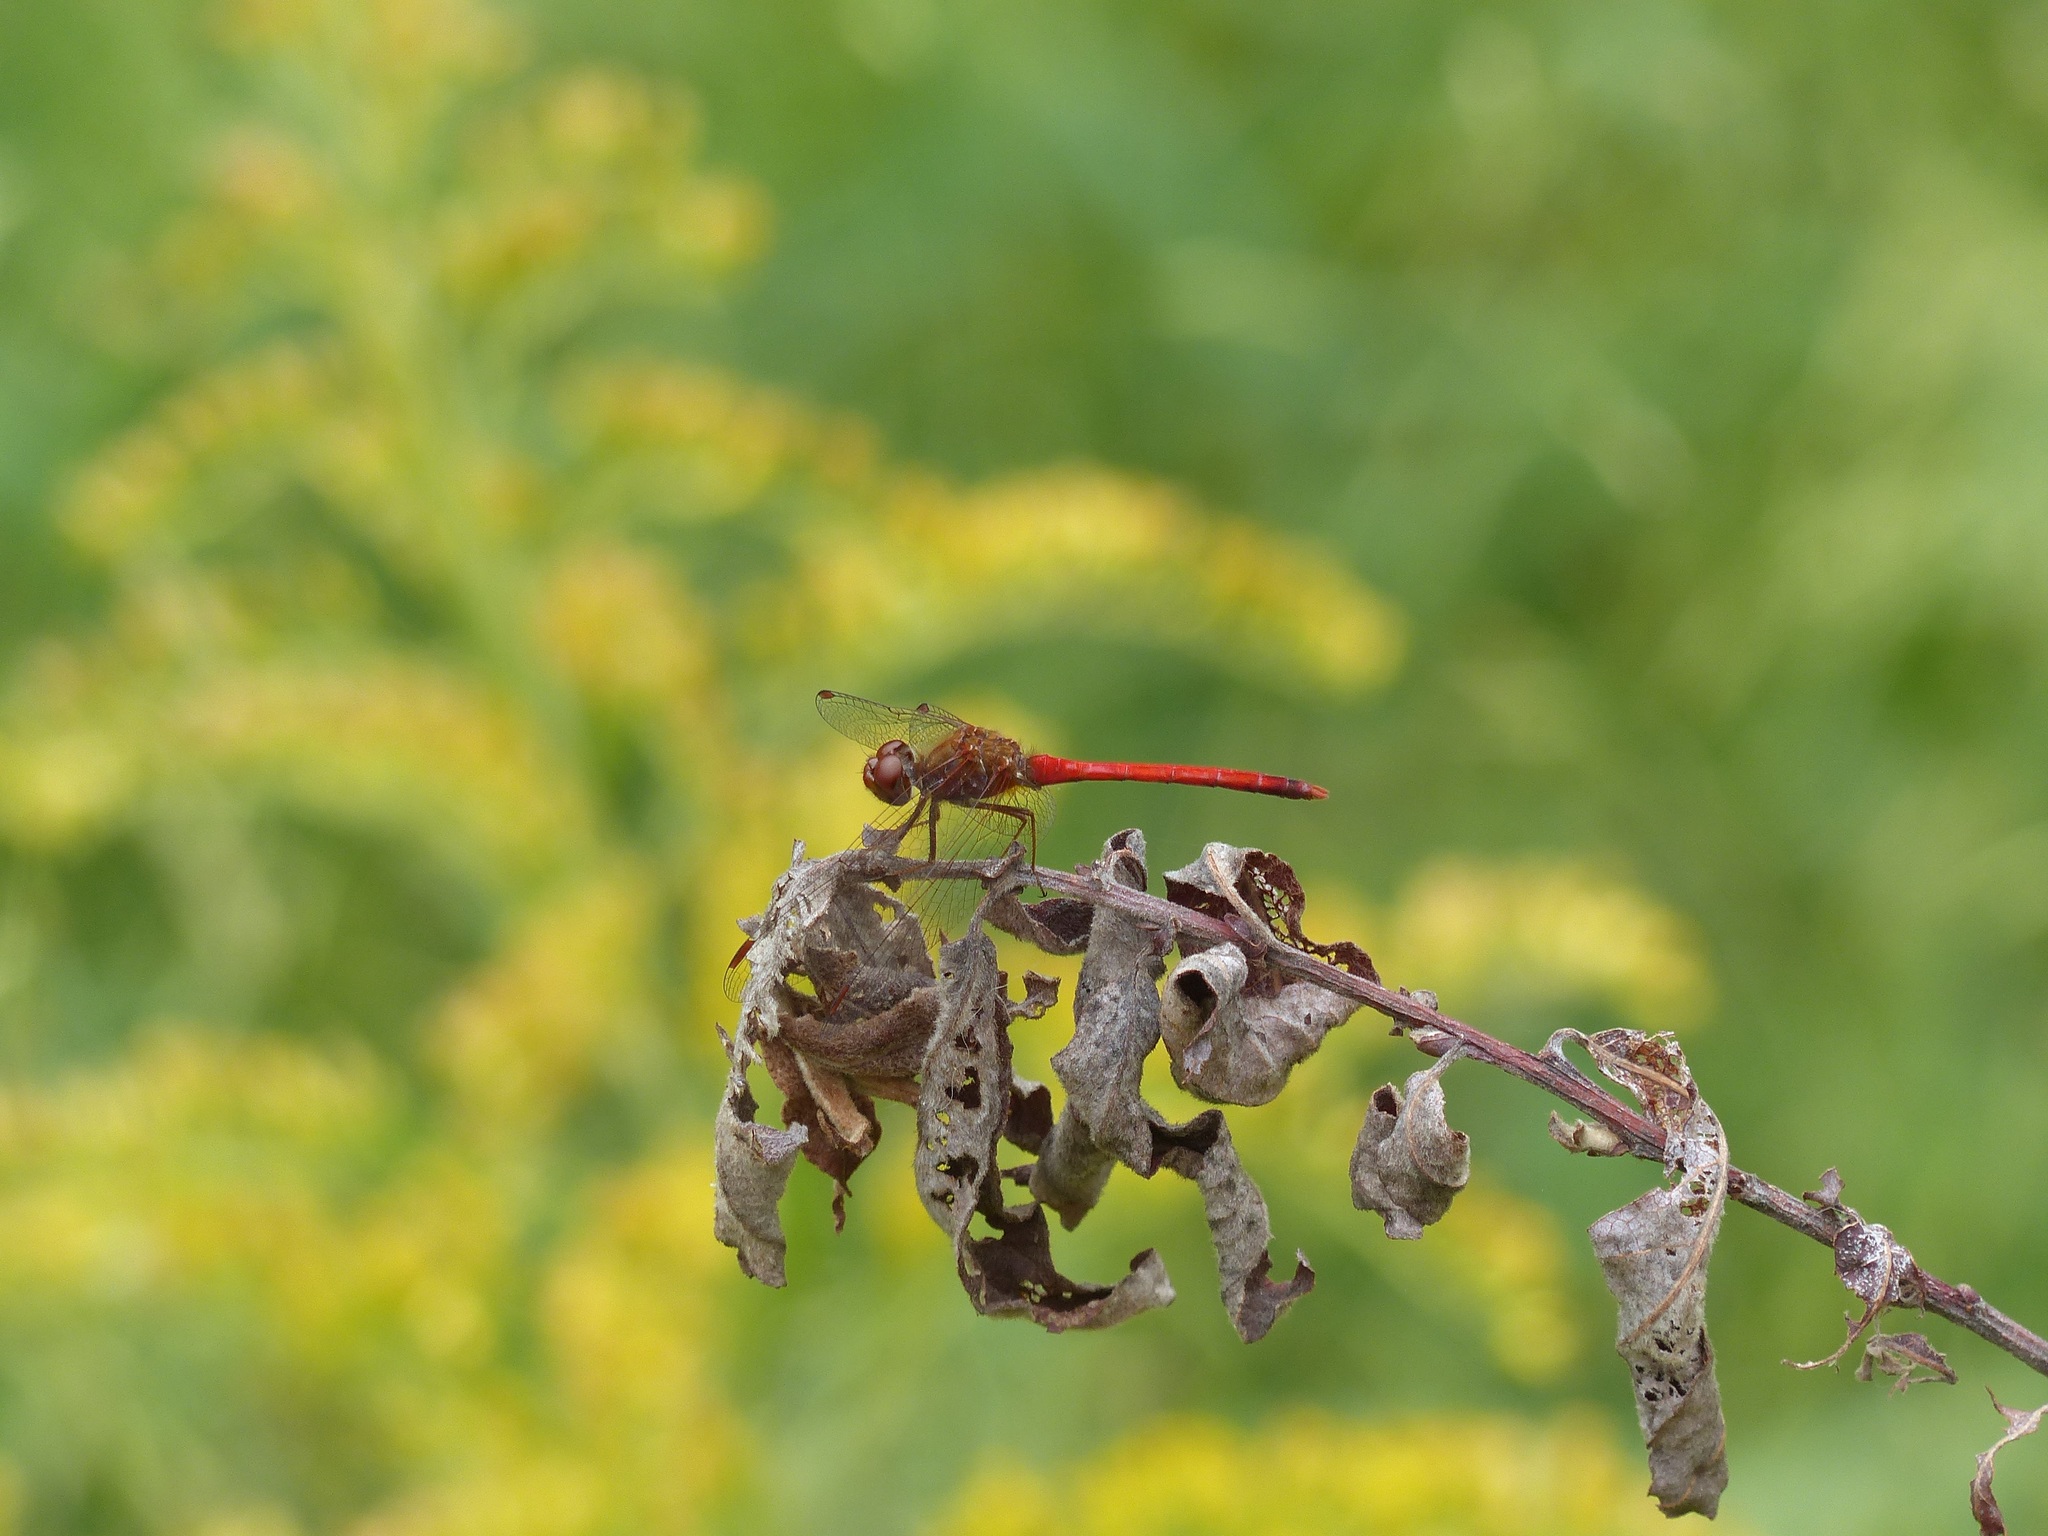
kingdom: Animalia
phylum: Arthropoda
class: Insecta
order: Odonata
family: Libellulidae
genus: Sympetrum
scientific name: Sympetrum vicinum
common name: Autumn meadowhawk
